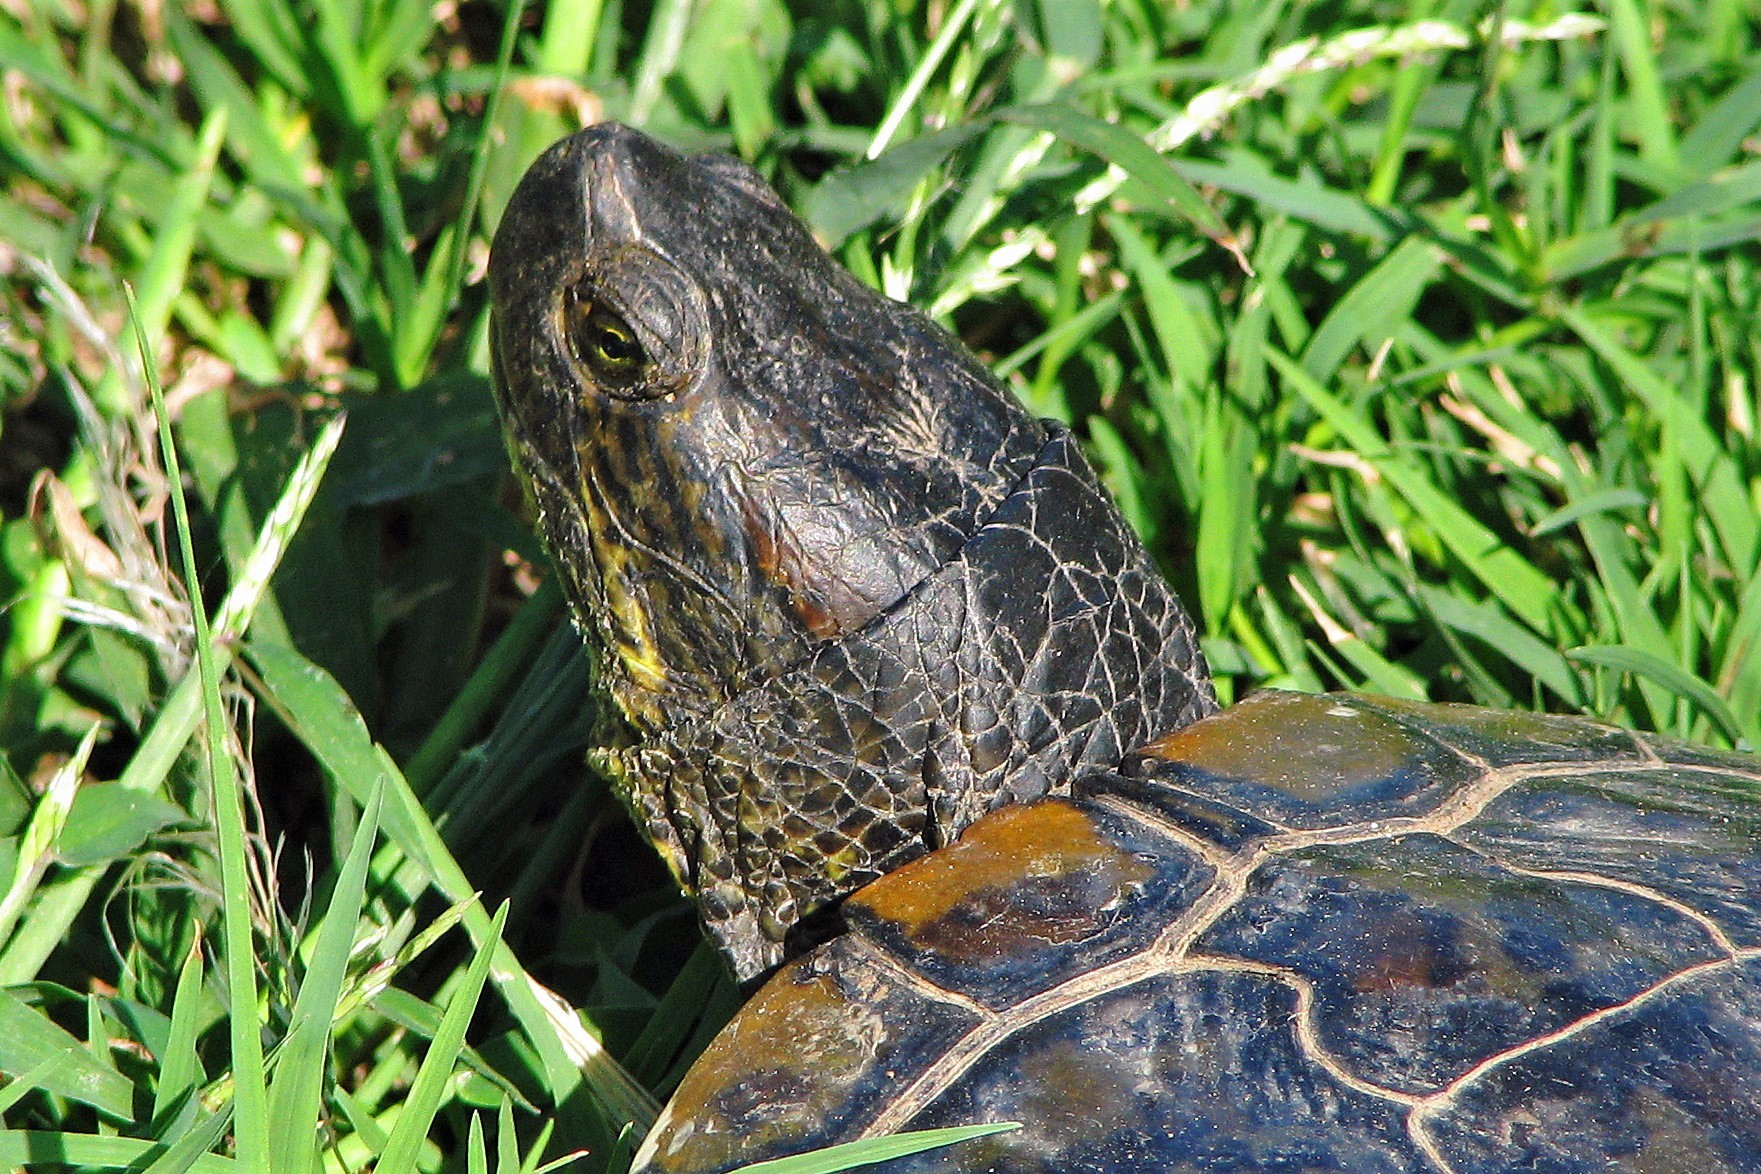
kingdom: Animalia
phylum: Chordata
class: Testudines
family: Emydidae
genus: Trachemys
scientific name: Trachemys scripta
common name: Slider
